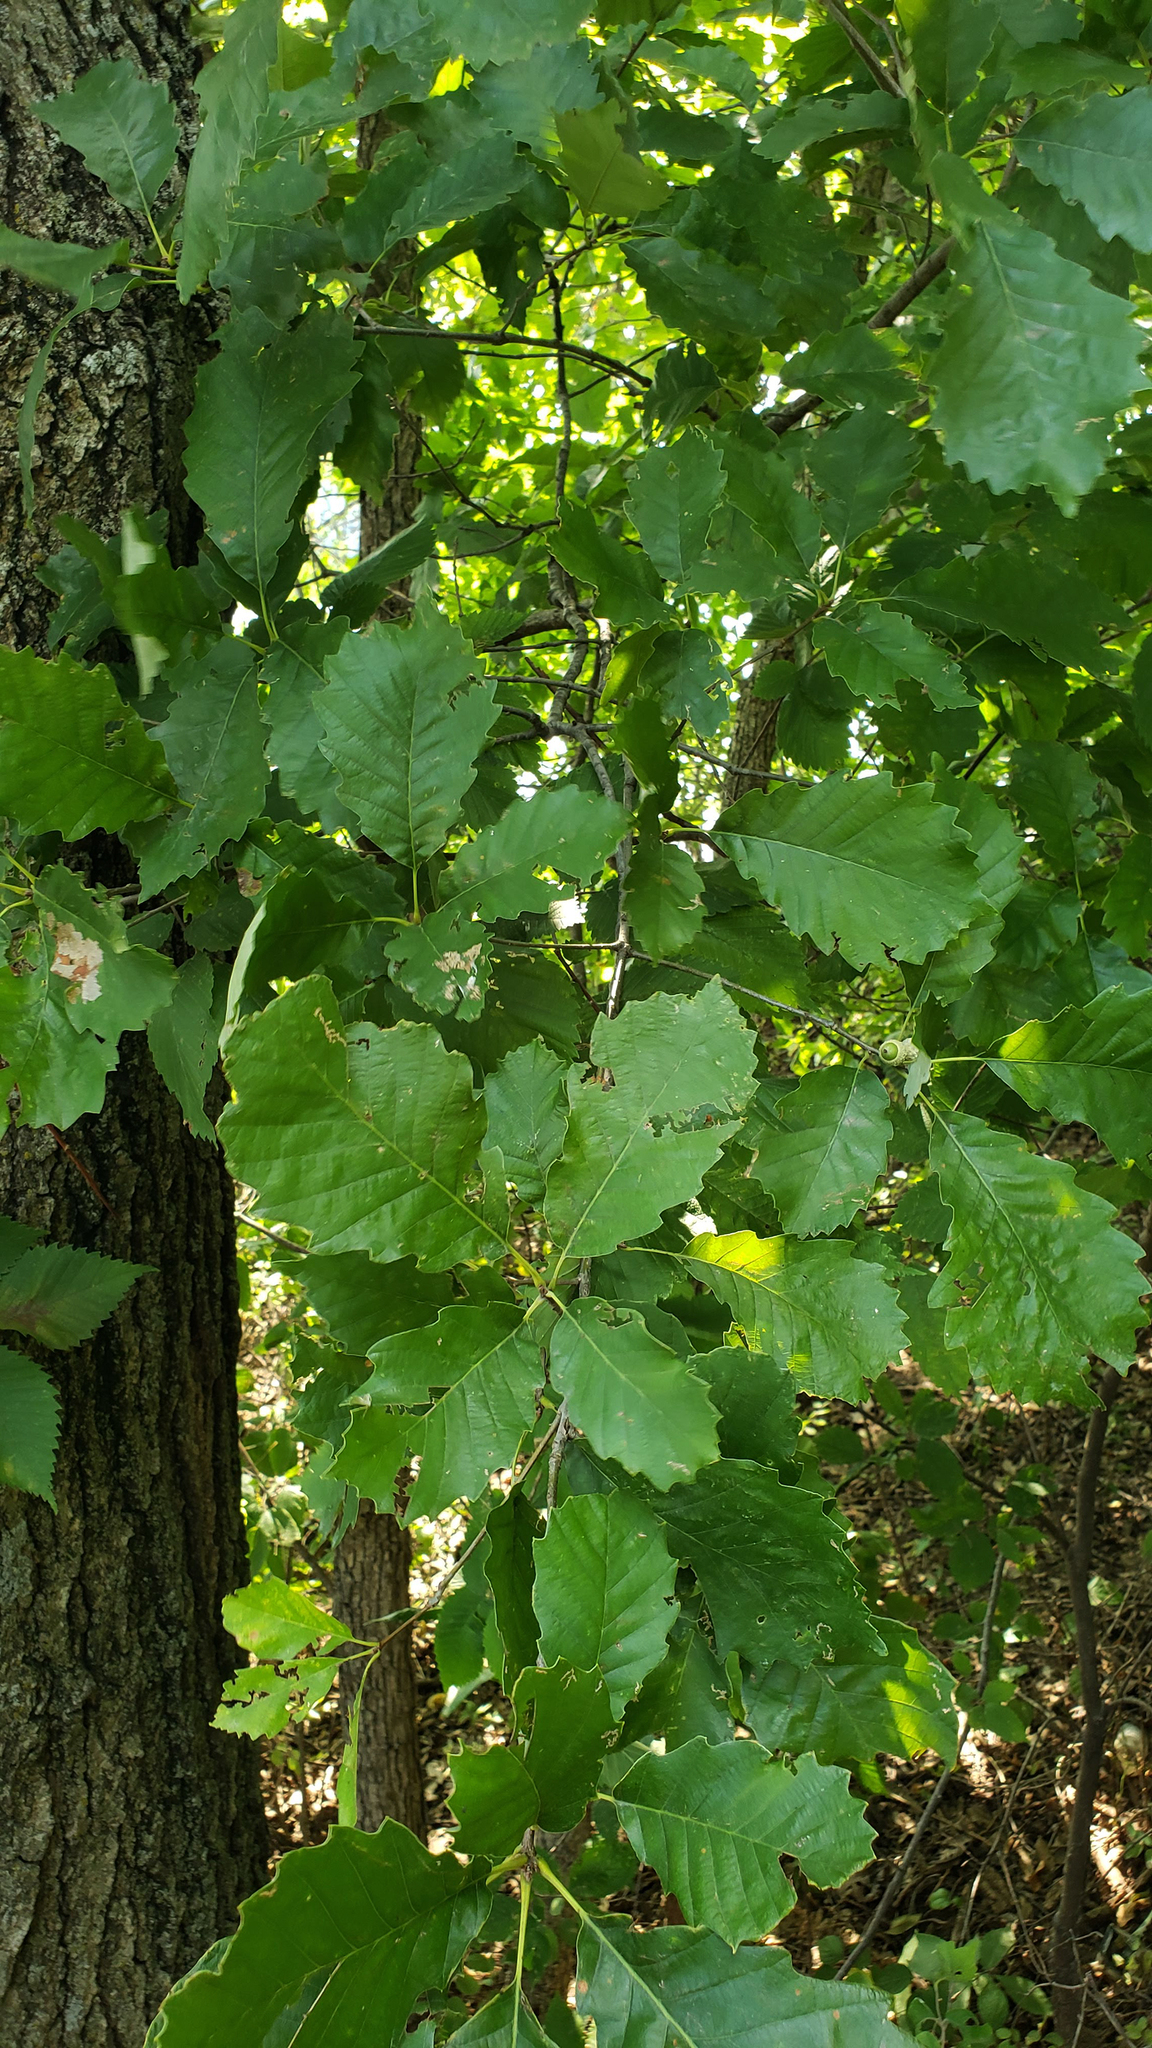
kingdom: Plantae
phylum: Tracheophyta
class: Magnoliopsida
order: Fagales
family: Fagaceae
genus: Quercus
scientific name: Quercus muehlenbergii
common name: Chinkapin oak
